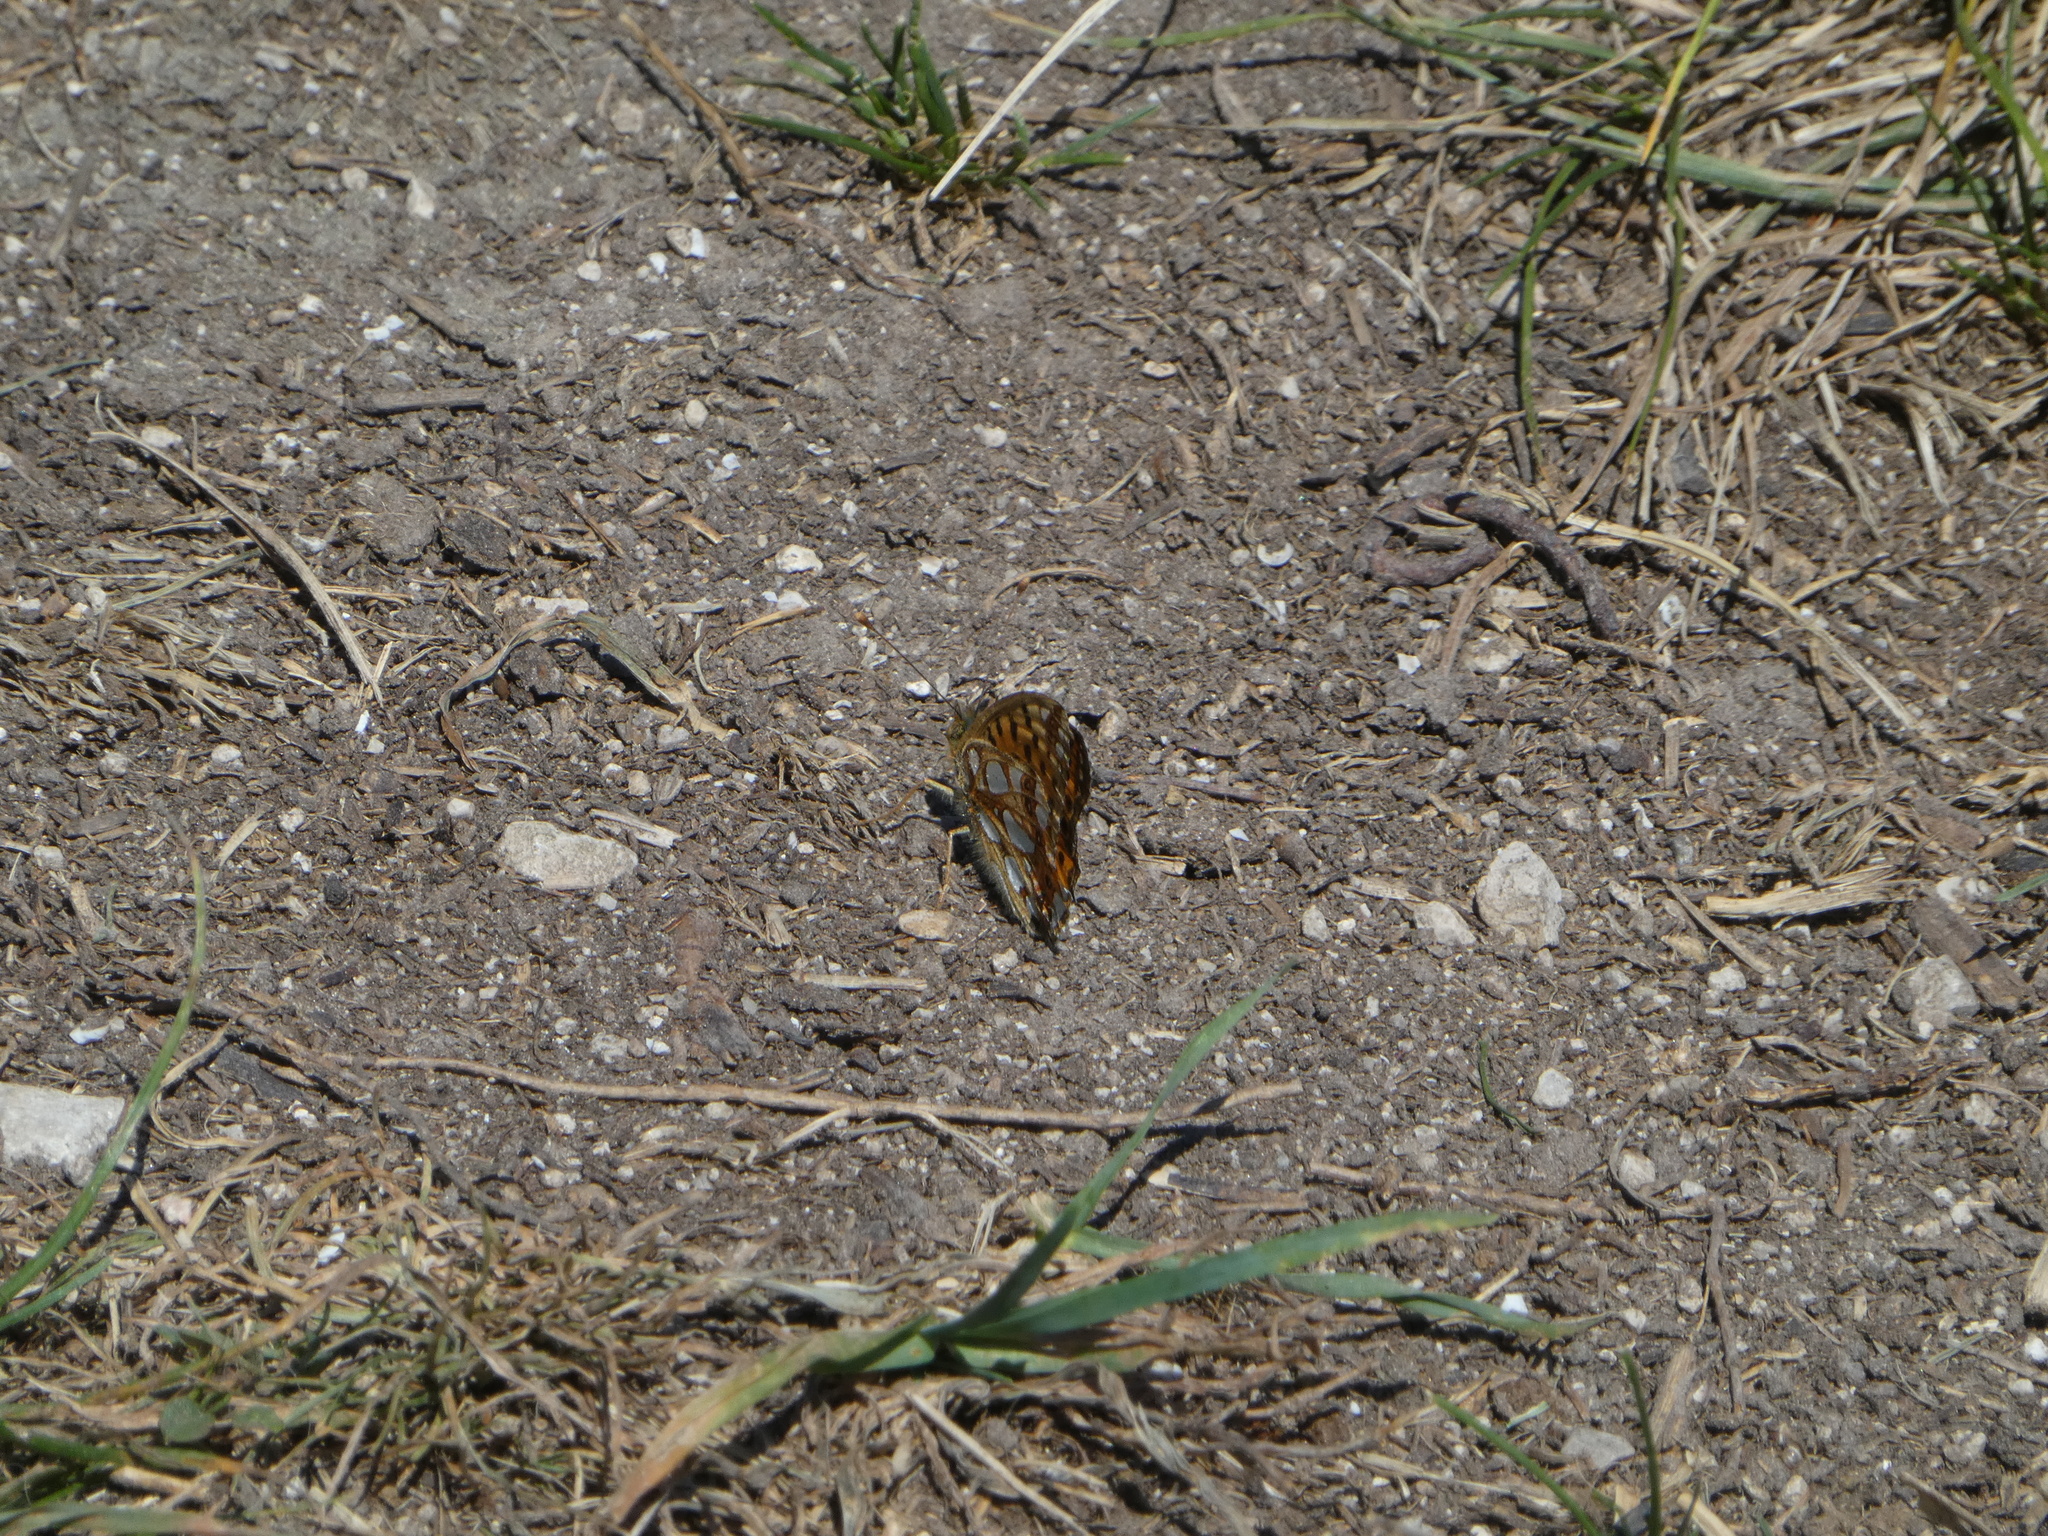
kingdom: Animalia
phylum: Arthropoda
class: Insecta
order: Lepidoptera
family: Nymphalidae
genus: Issoria
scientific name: Issoria lathonia
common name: Queen of spain fritillary
